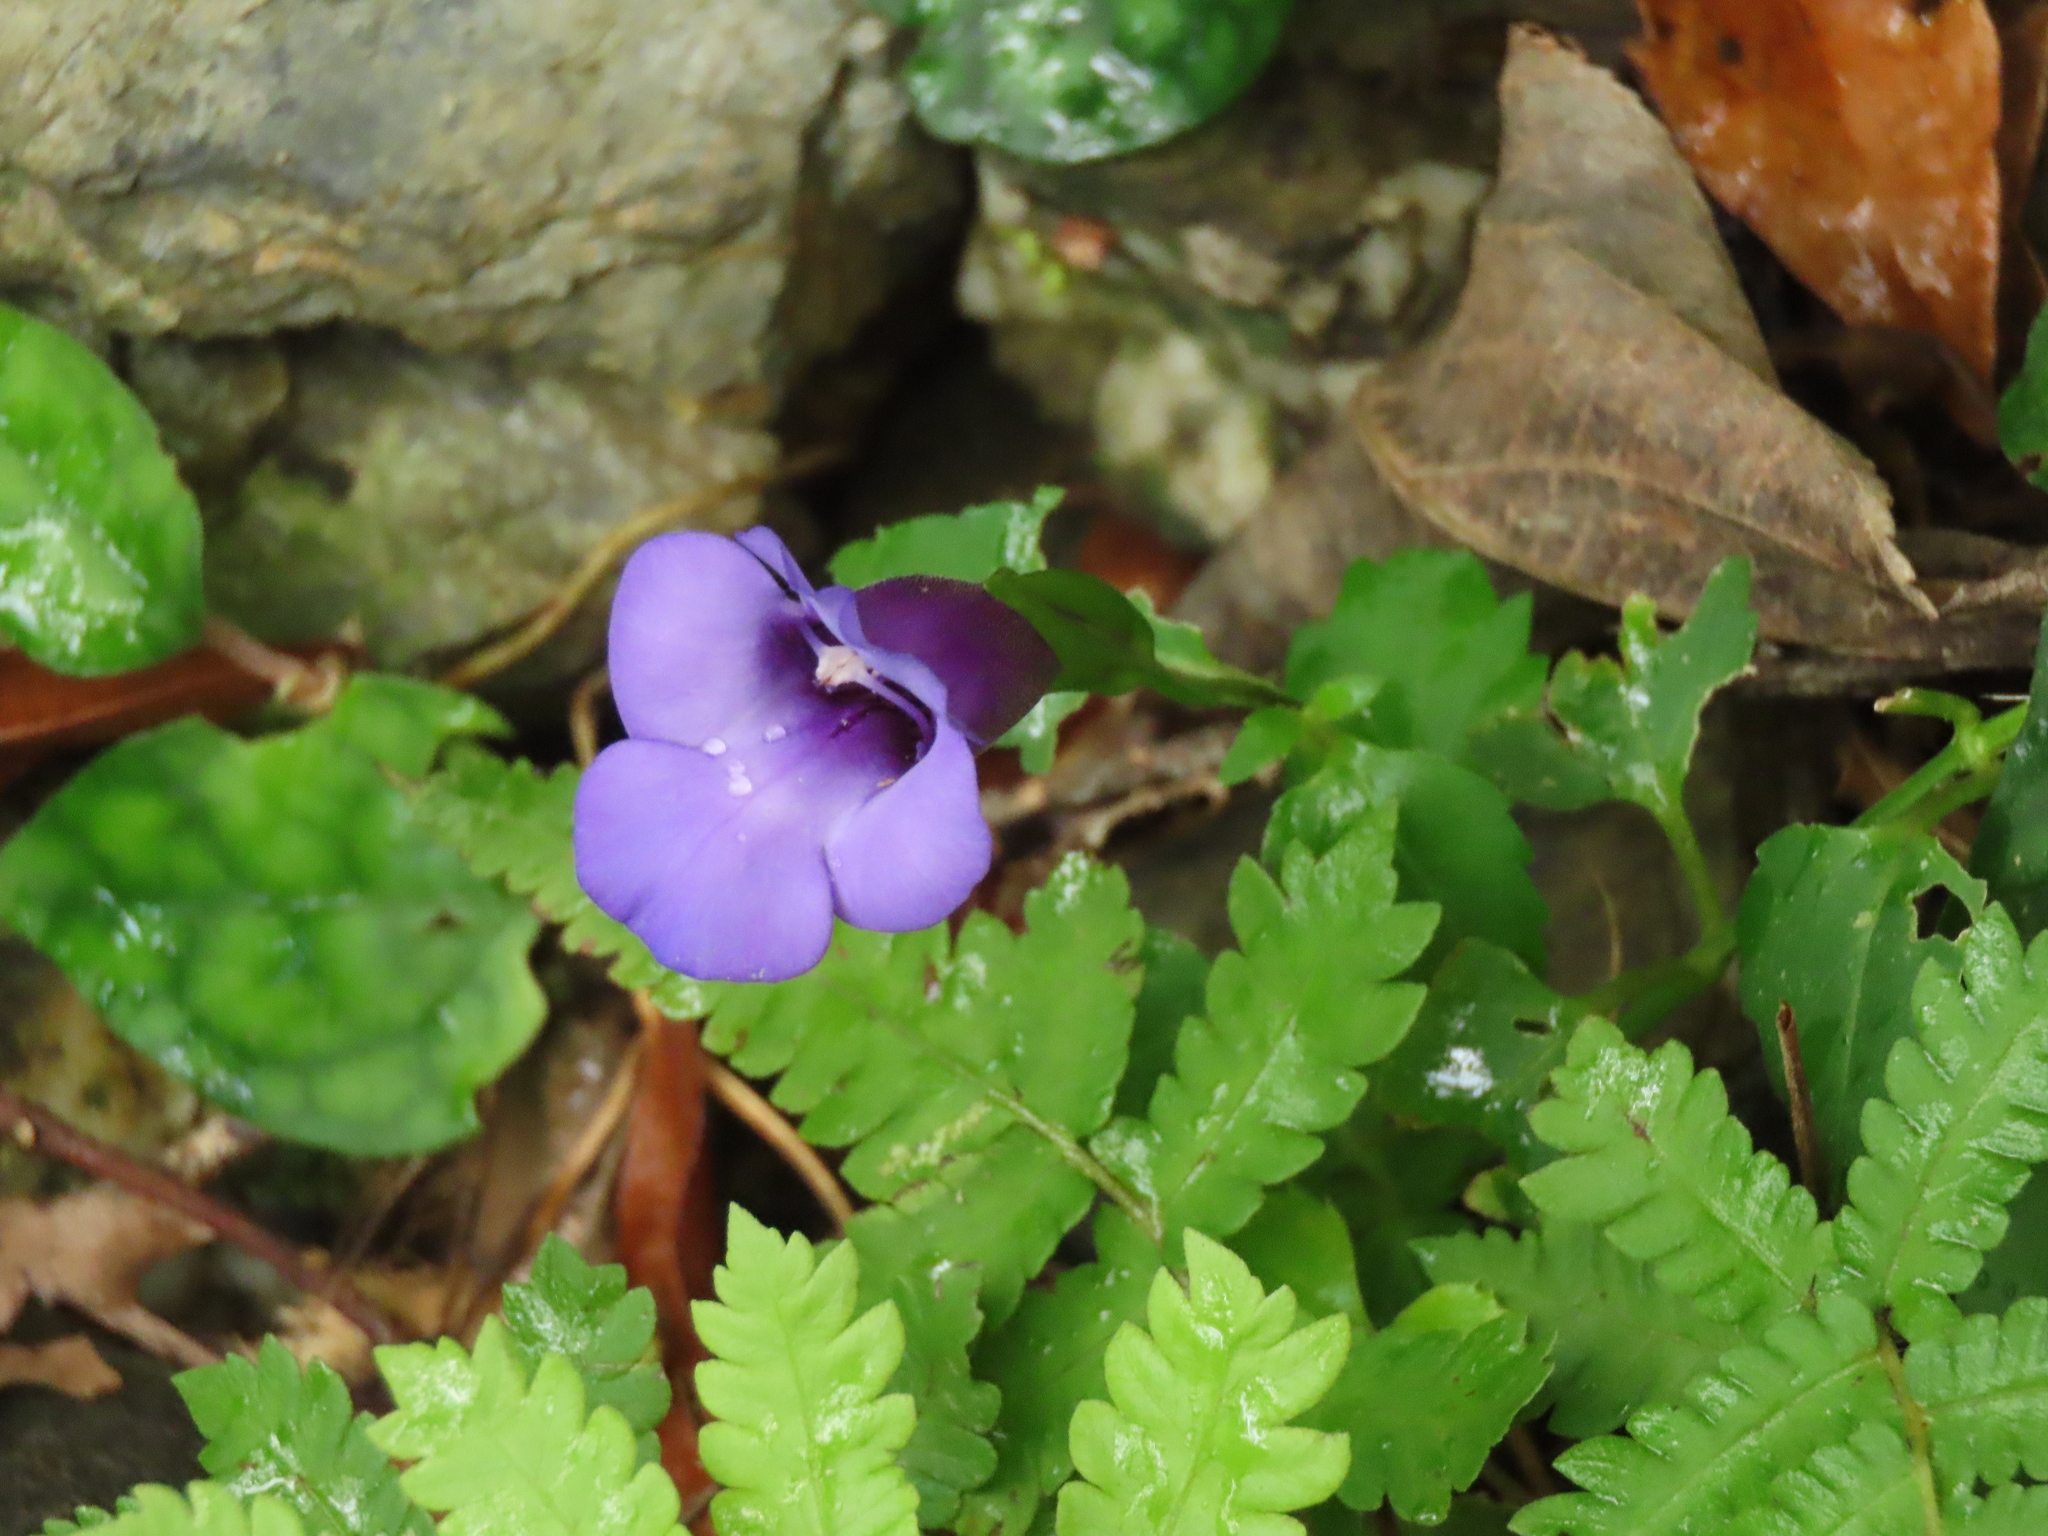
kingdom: Plantae
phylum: Tracheophyta
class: Magnoliopsida
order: Lamiales
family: Linderniaceae
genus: Torenia
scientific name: Torenia concolor
